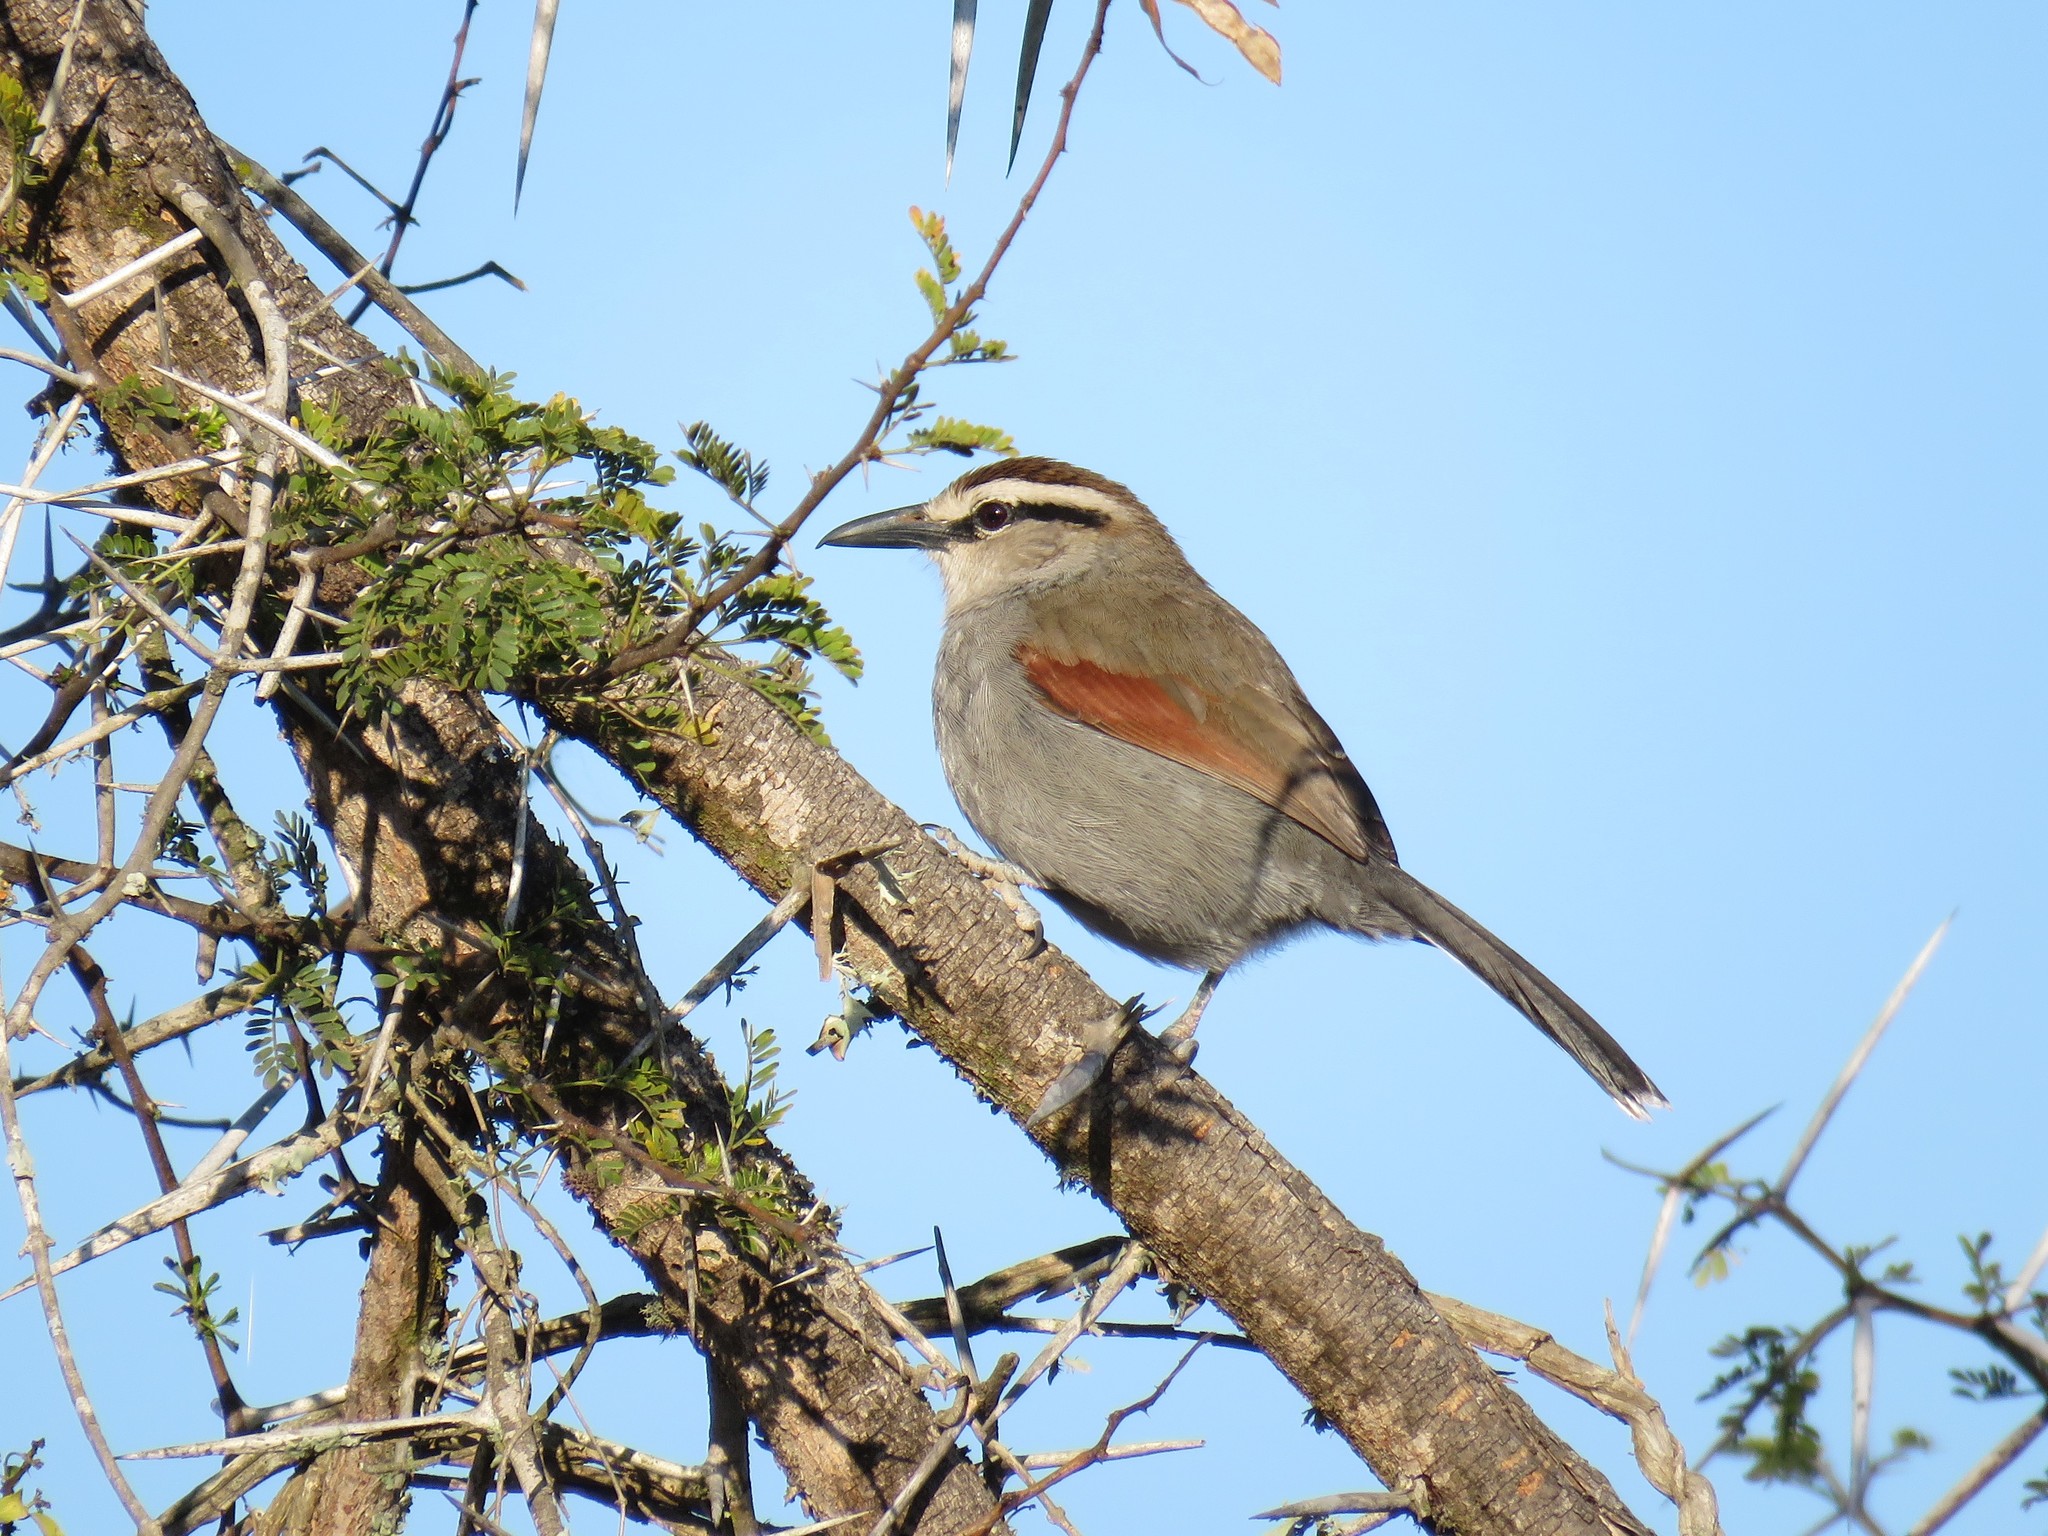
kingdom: Animalia
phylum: Chordata
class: Aves
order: Passeriformes
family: Malaconotidae
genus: Tchagra
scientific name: Tchagra tchagra
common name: Southern tchagra
